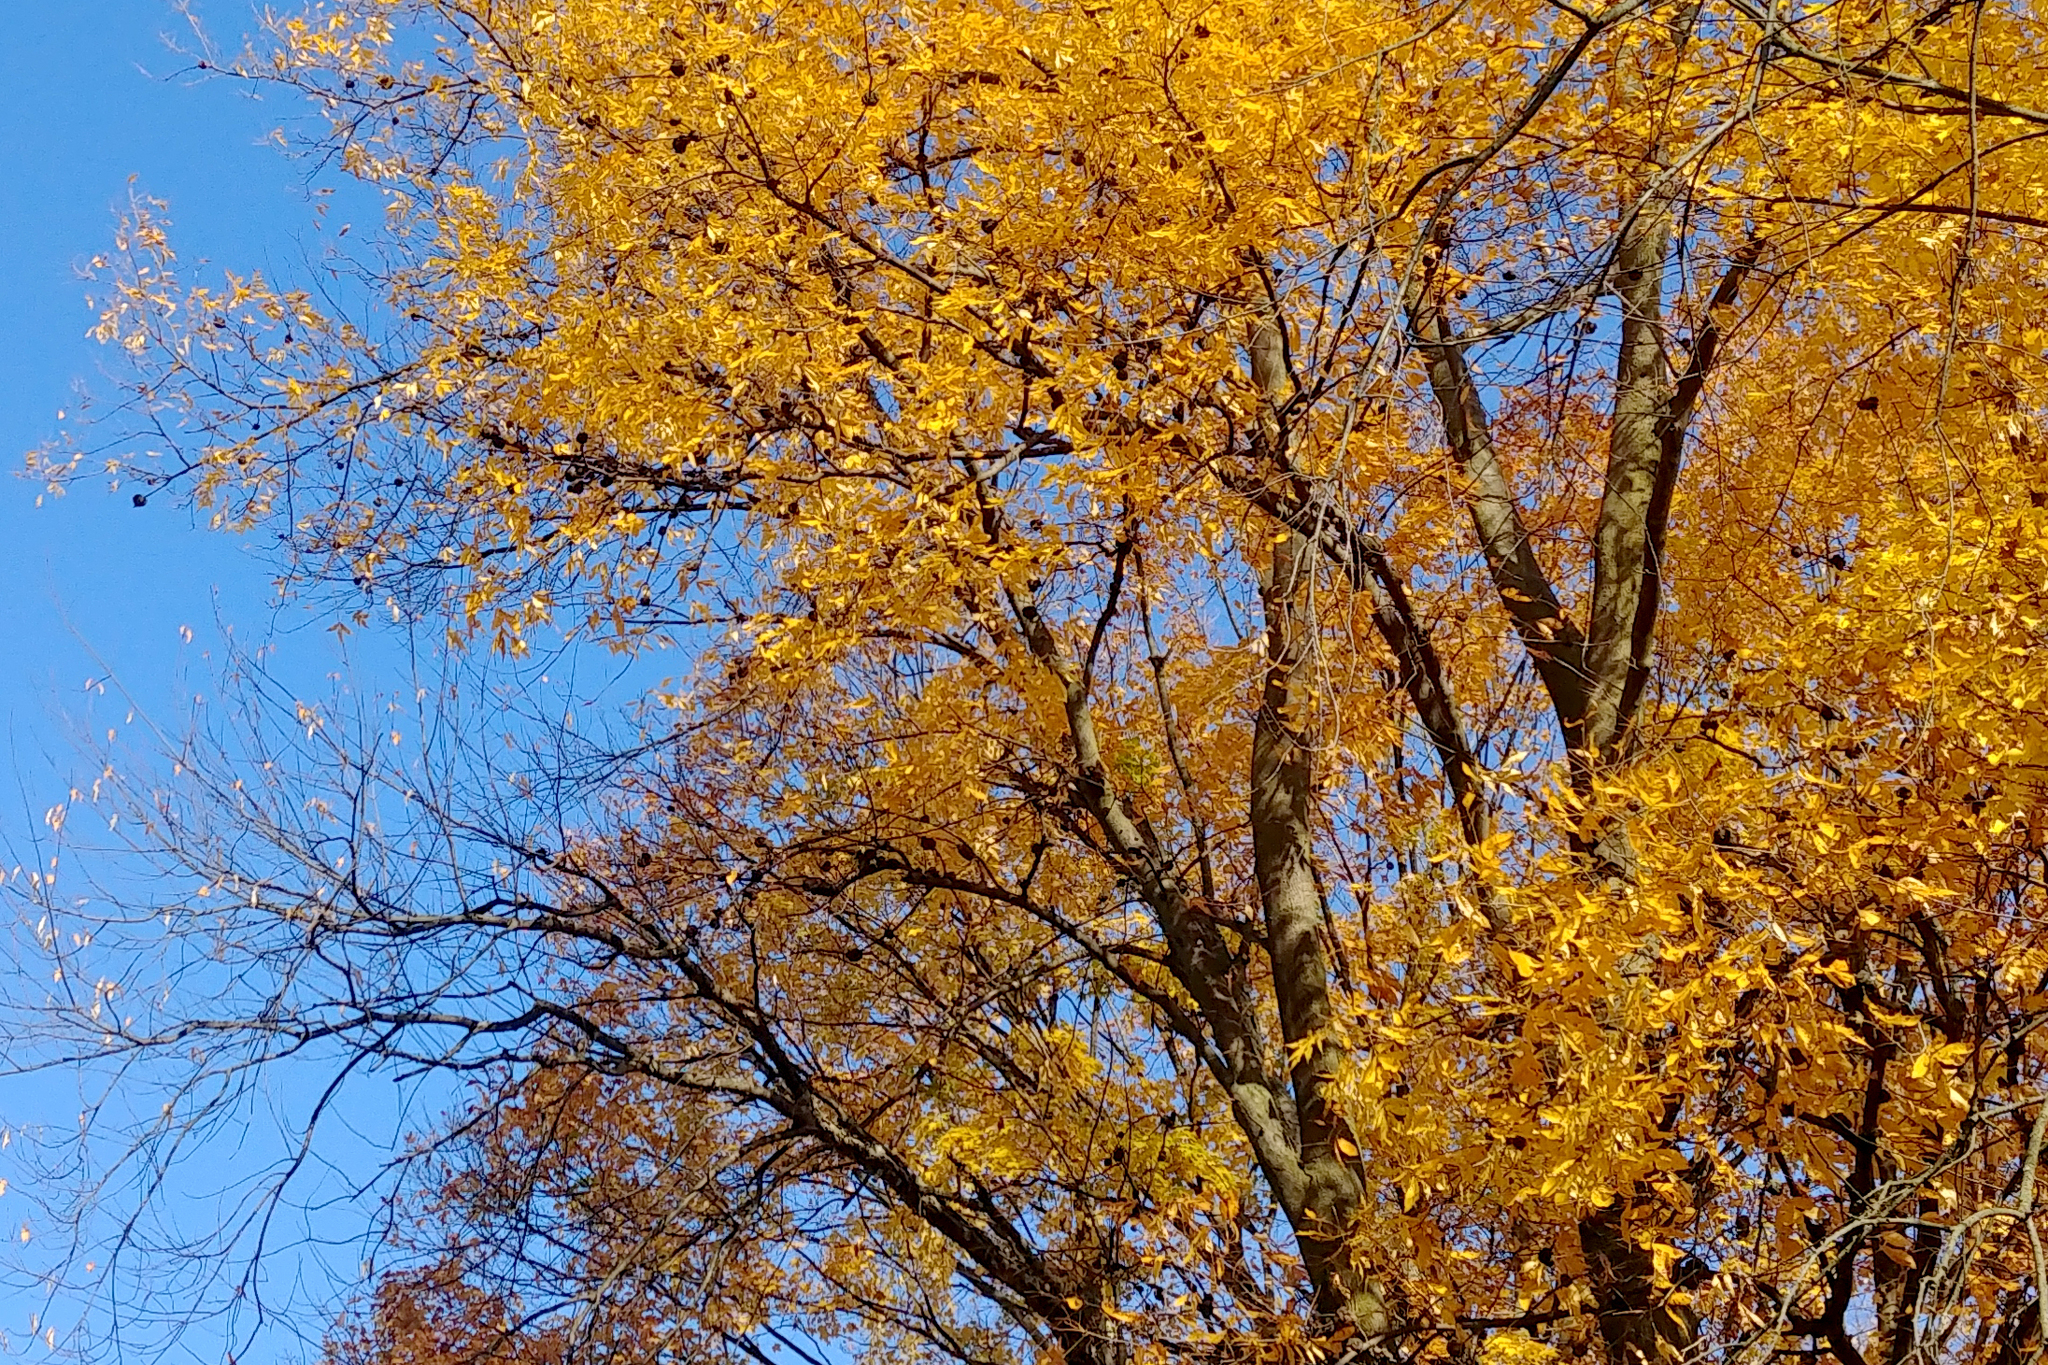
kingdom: Plantae
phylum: Tracheophyta
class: Magnoliopsida
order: Fagales
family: Juglandaceae
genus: Carya
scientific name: Carya cordiformis
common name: Bitternut hickory
